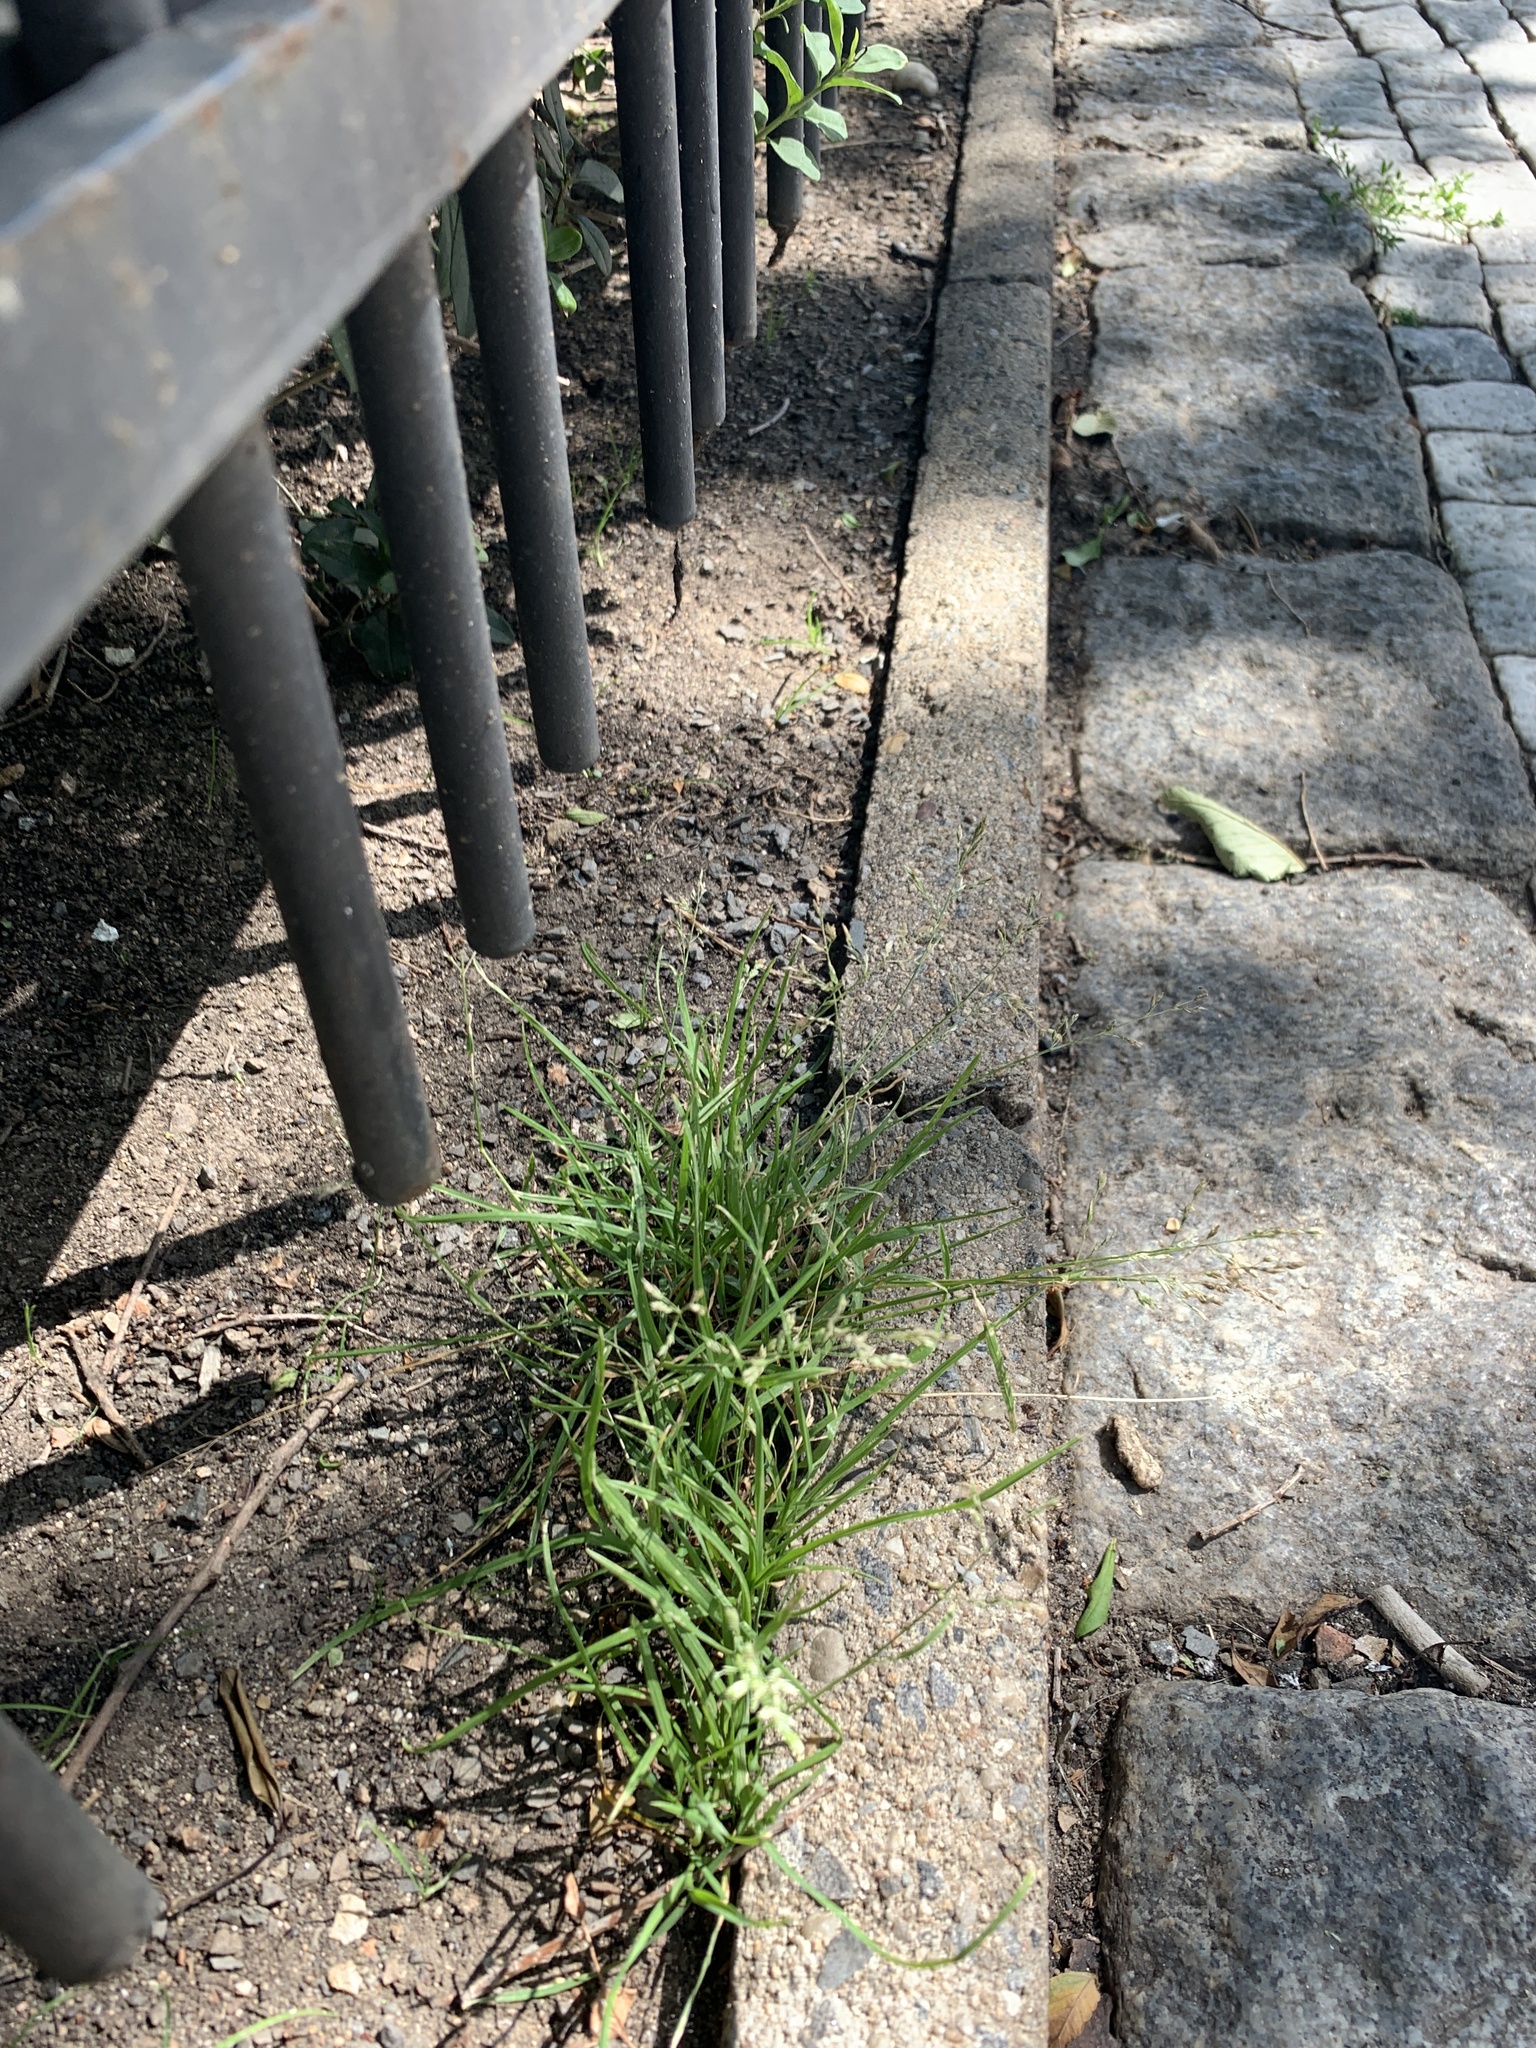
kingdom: Plantae
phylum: Tracheophyta
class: Liliopsida
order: Poales
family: Poaceae
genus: Poa
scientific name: Poa annua
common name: Annual bluegrass
